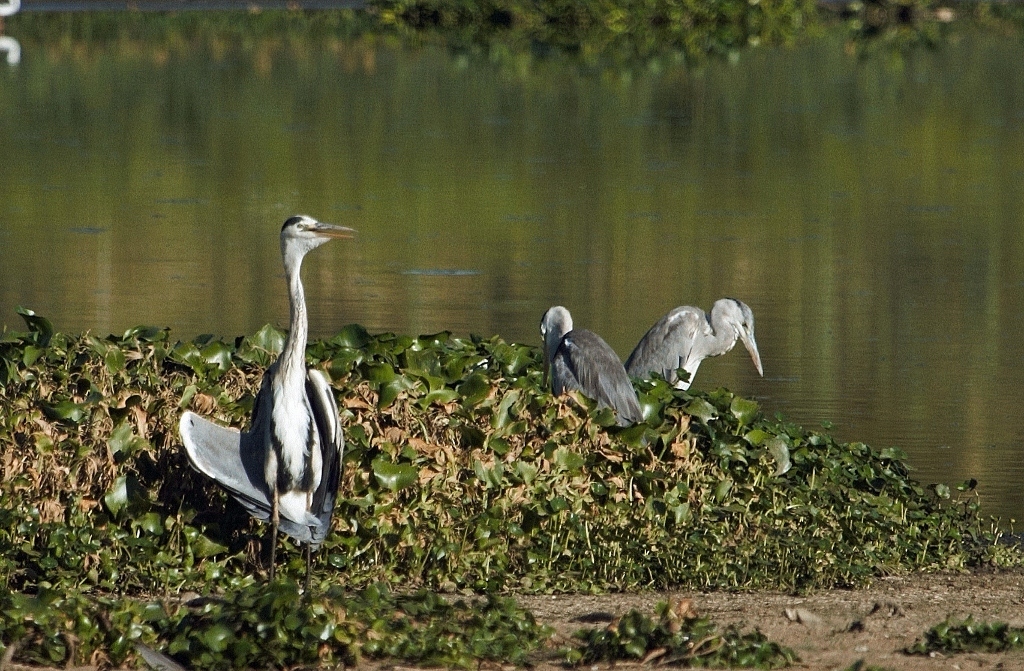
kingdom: Animalia
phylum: Chordata
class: Aves
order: Pelecaniformes
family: Ardeidae
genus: Ardea
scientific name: Ardea cinerea
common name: Grey heron
